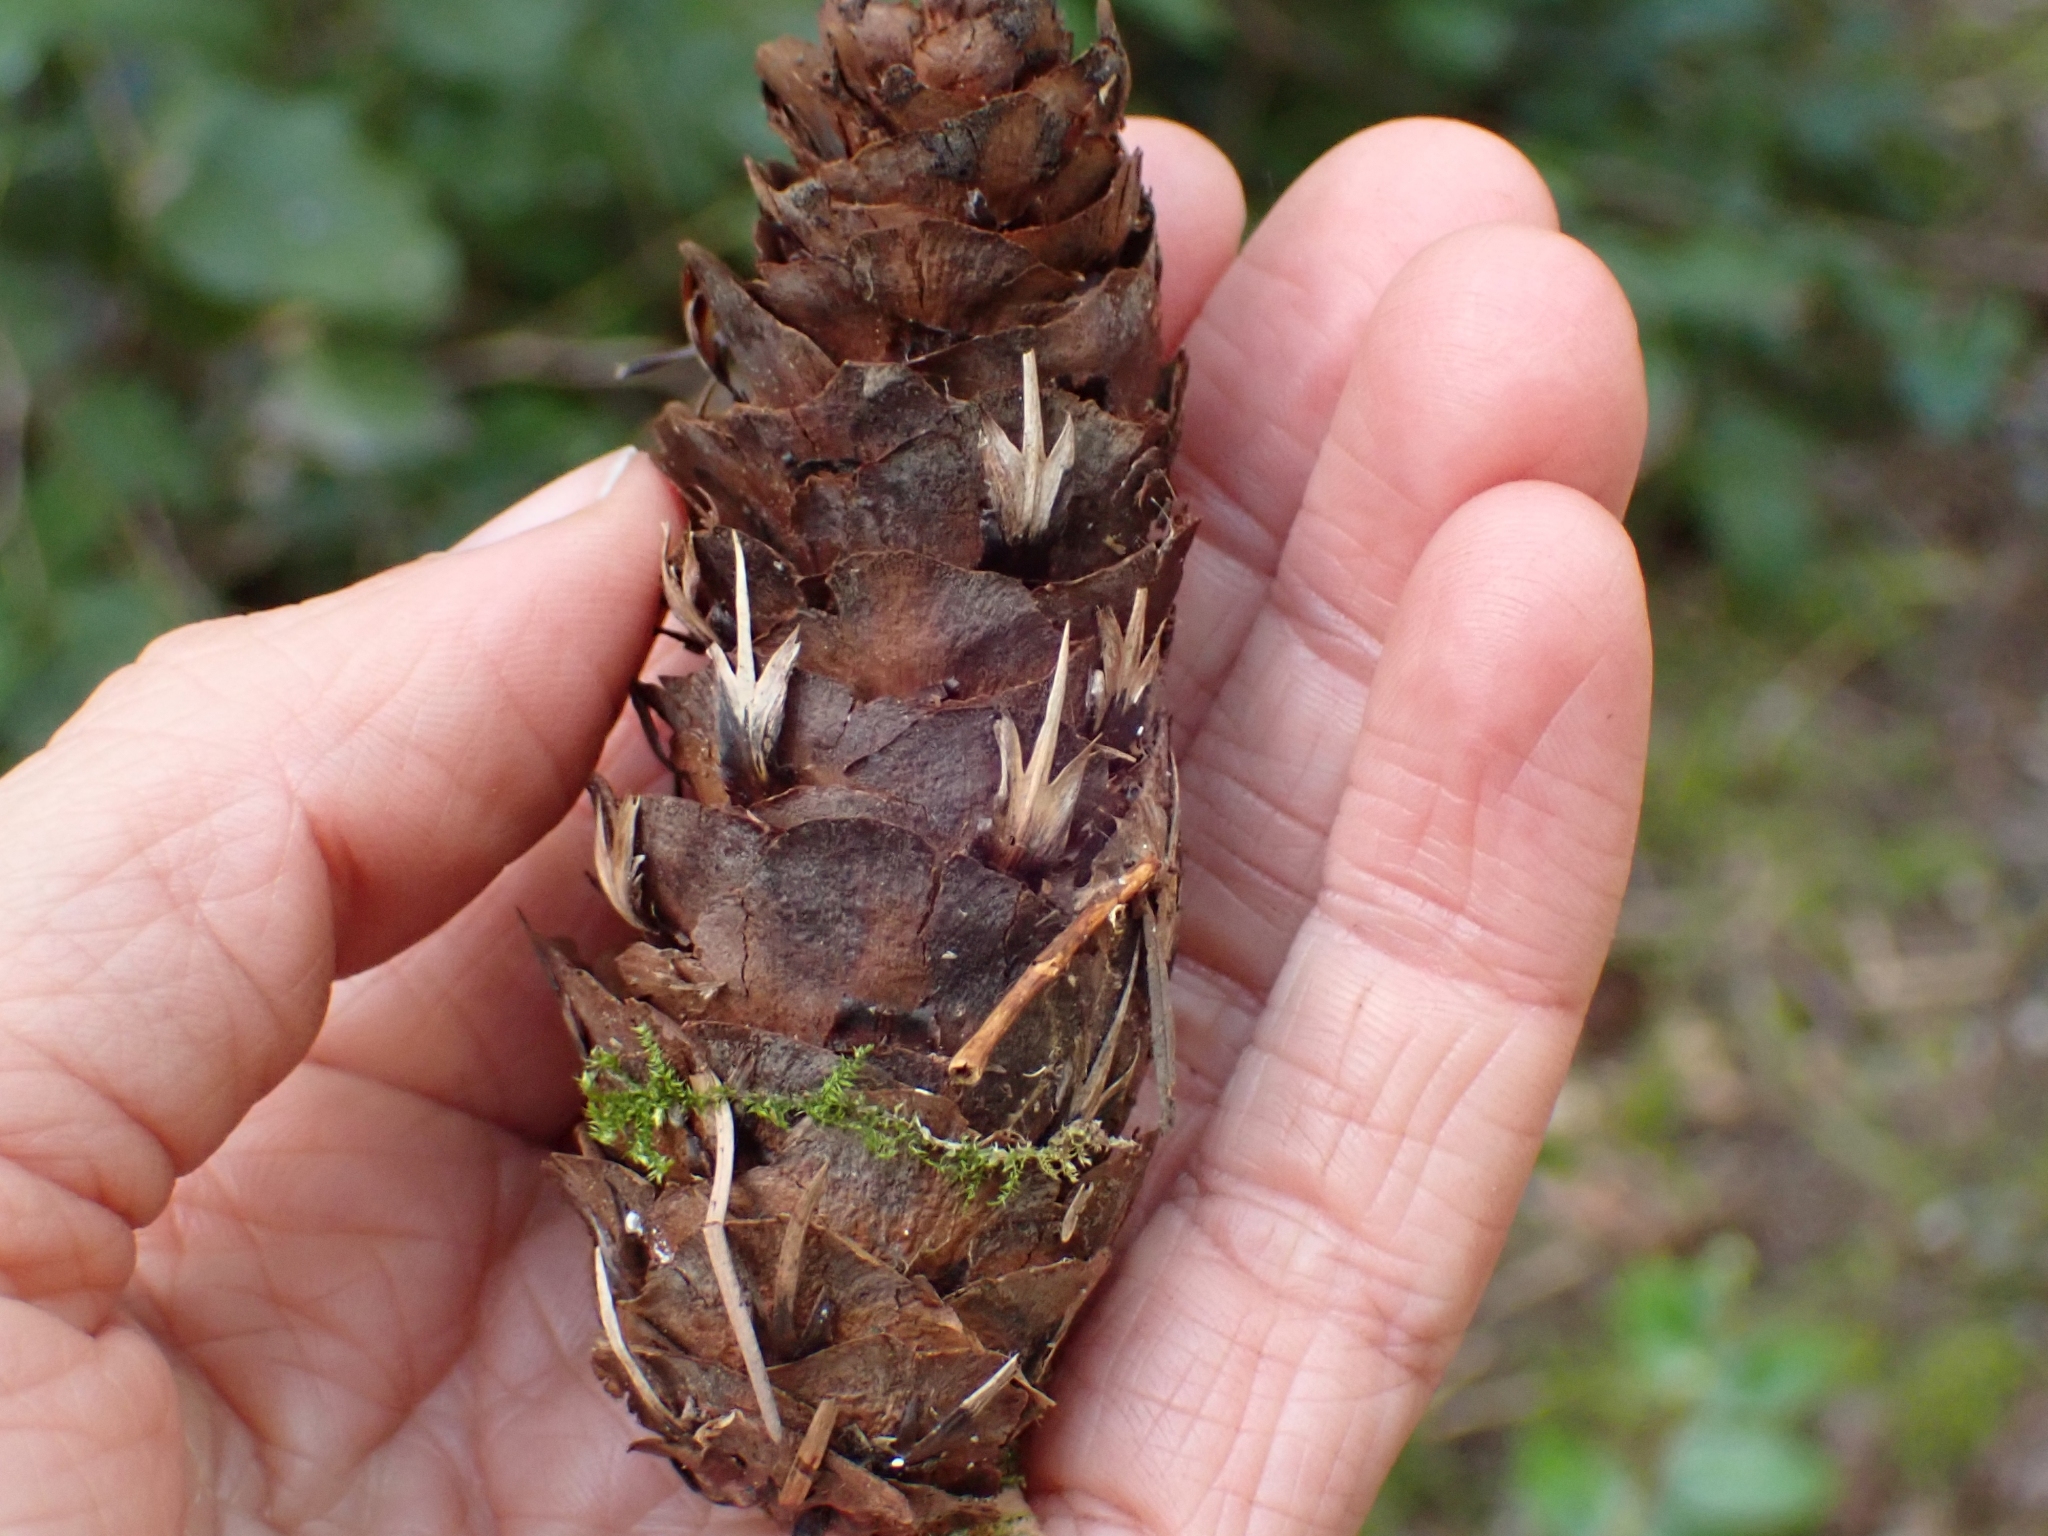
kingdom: Plantae
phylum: Tracheophyta
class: Pinopsida
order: Pinales
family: Pinaceae
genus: Pseudotsuga
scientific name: Pseudotsuga menziesii
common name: Douglas fir
